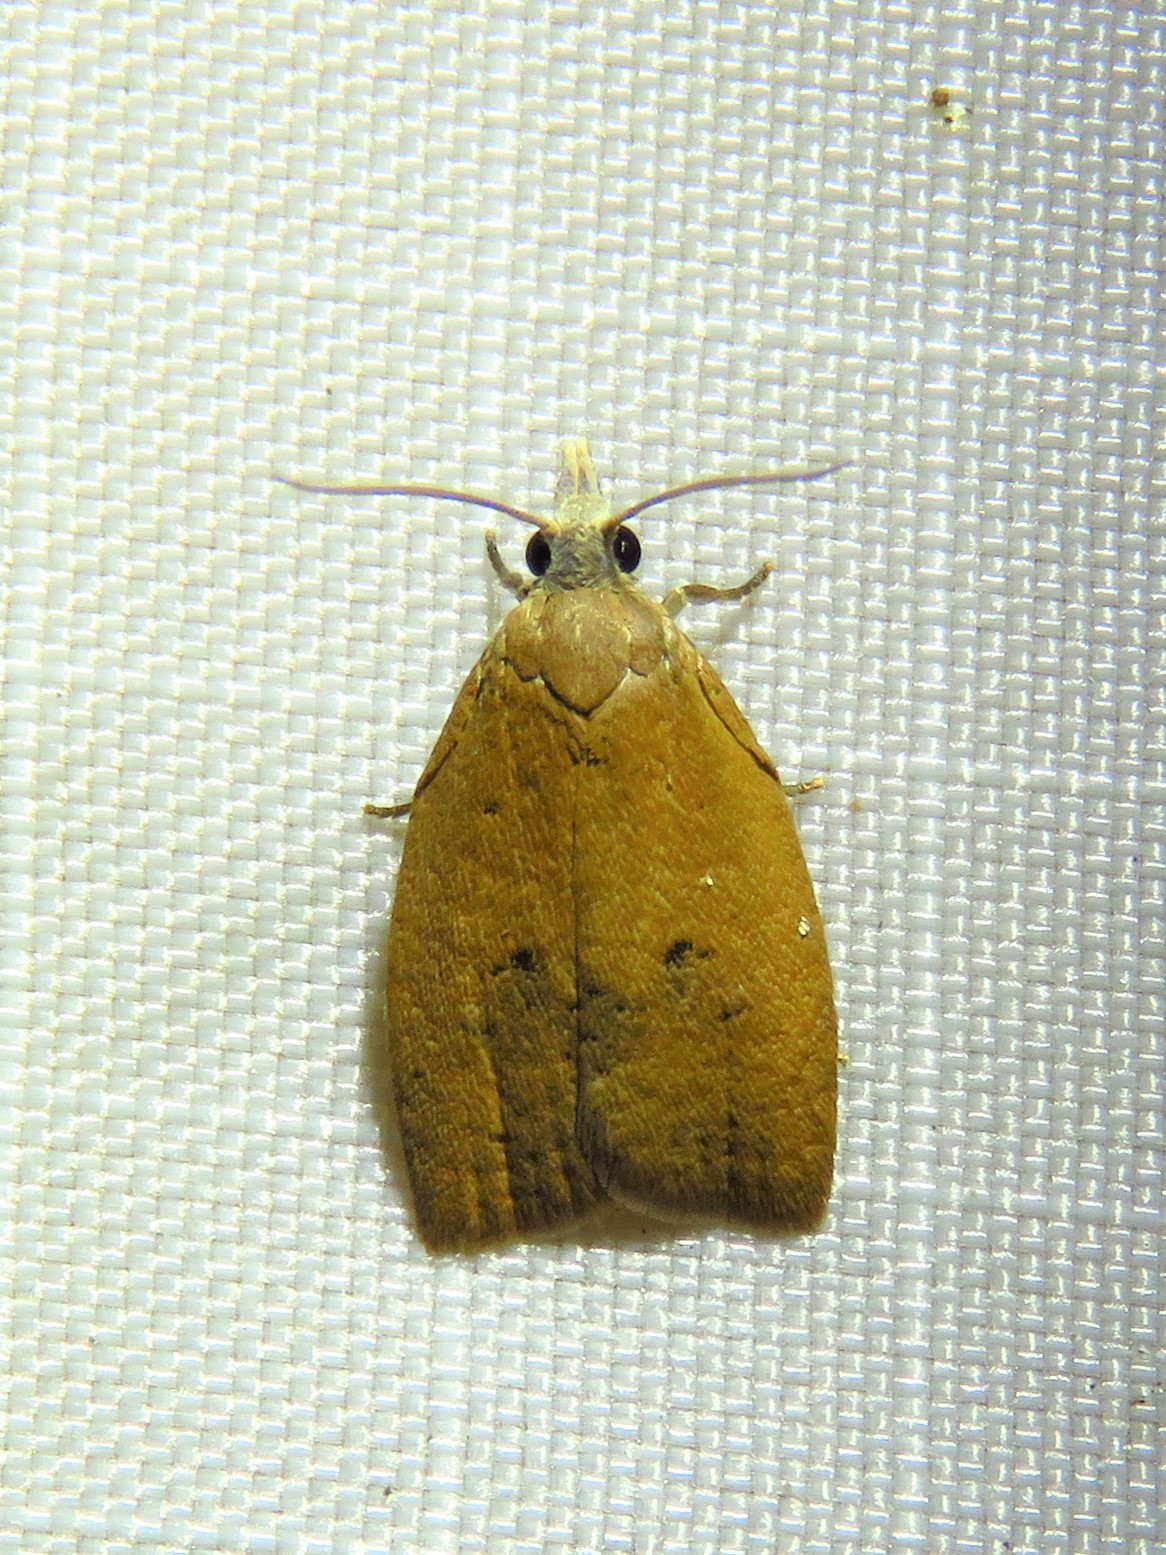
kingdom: Animalia
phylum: Arthropoda
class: Insecta
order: Lepidoptera
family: Tortricidae
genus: Sparganothoides
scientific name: Sparganothoides lentiginosana
